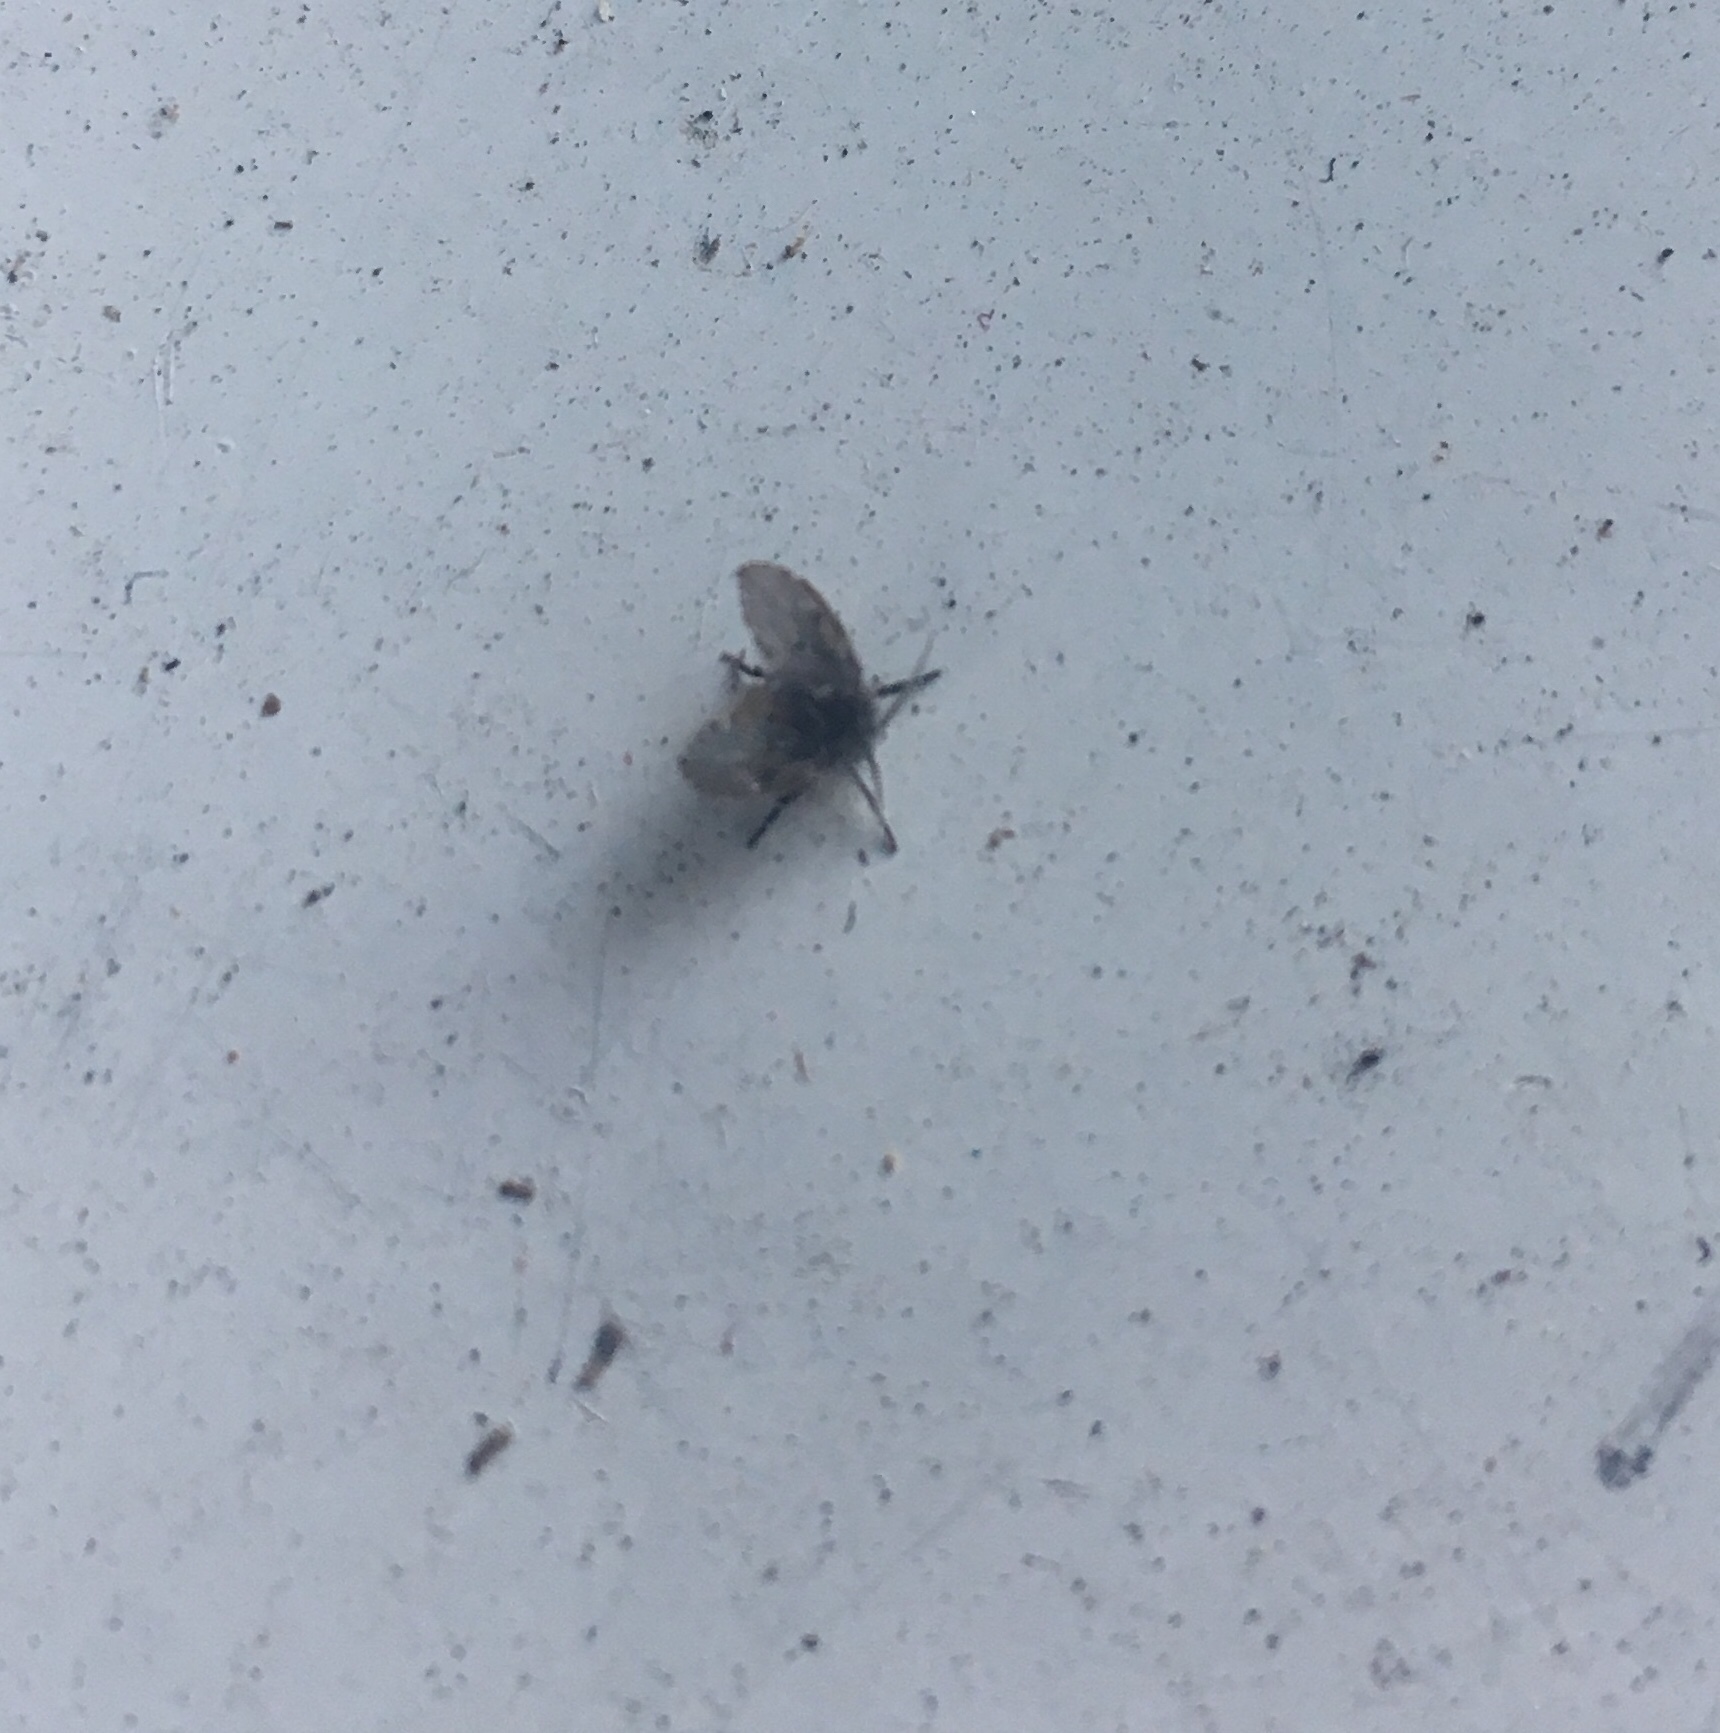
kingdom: Animalia
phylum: Arthropoda
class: Insecta
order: Diptera
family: Psychodidae
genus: Clogmia
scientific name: Clogmia albipunctatus
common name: White-spotted moth fly
